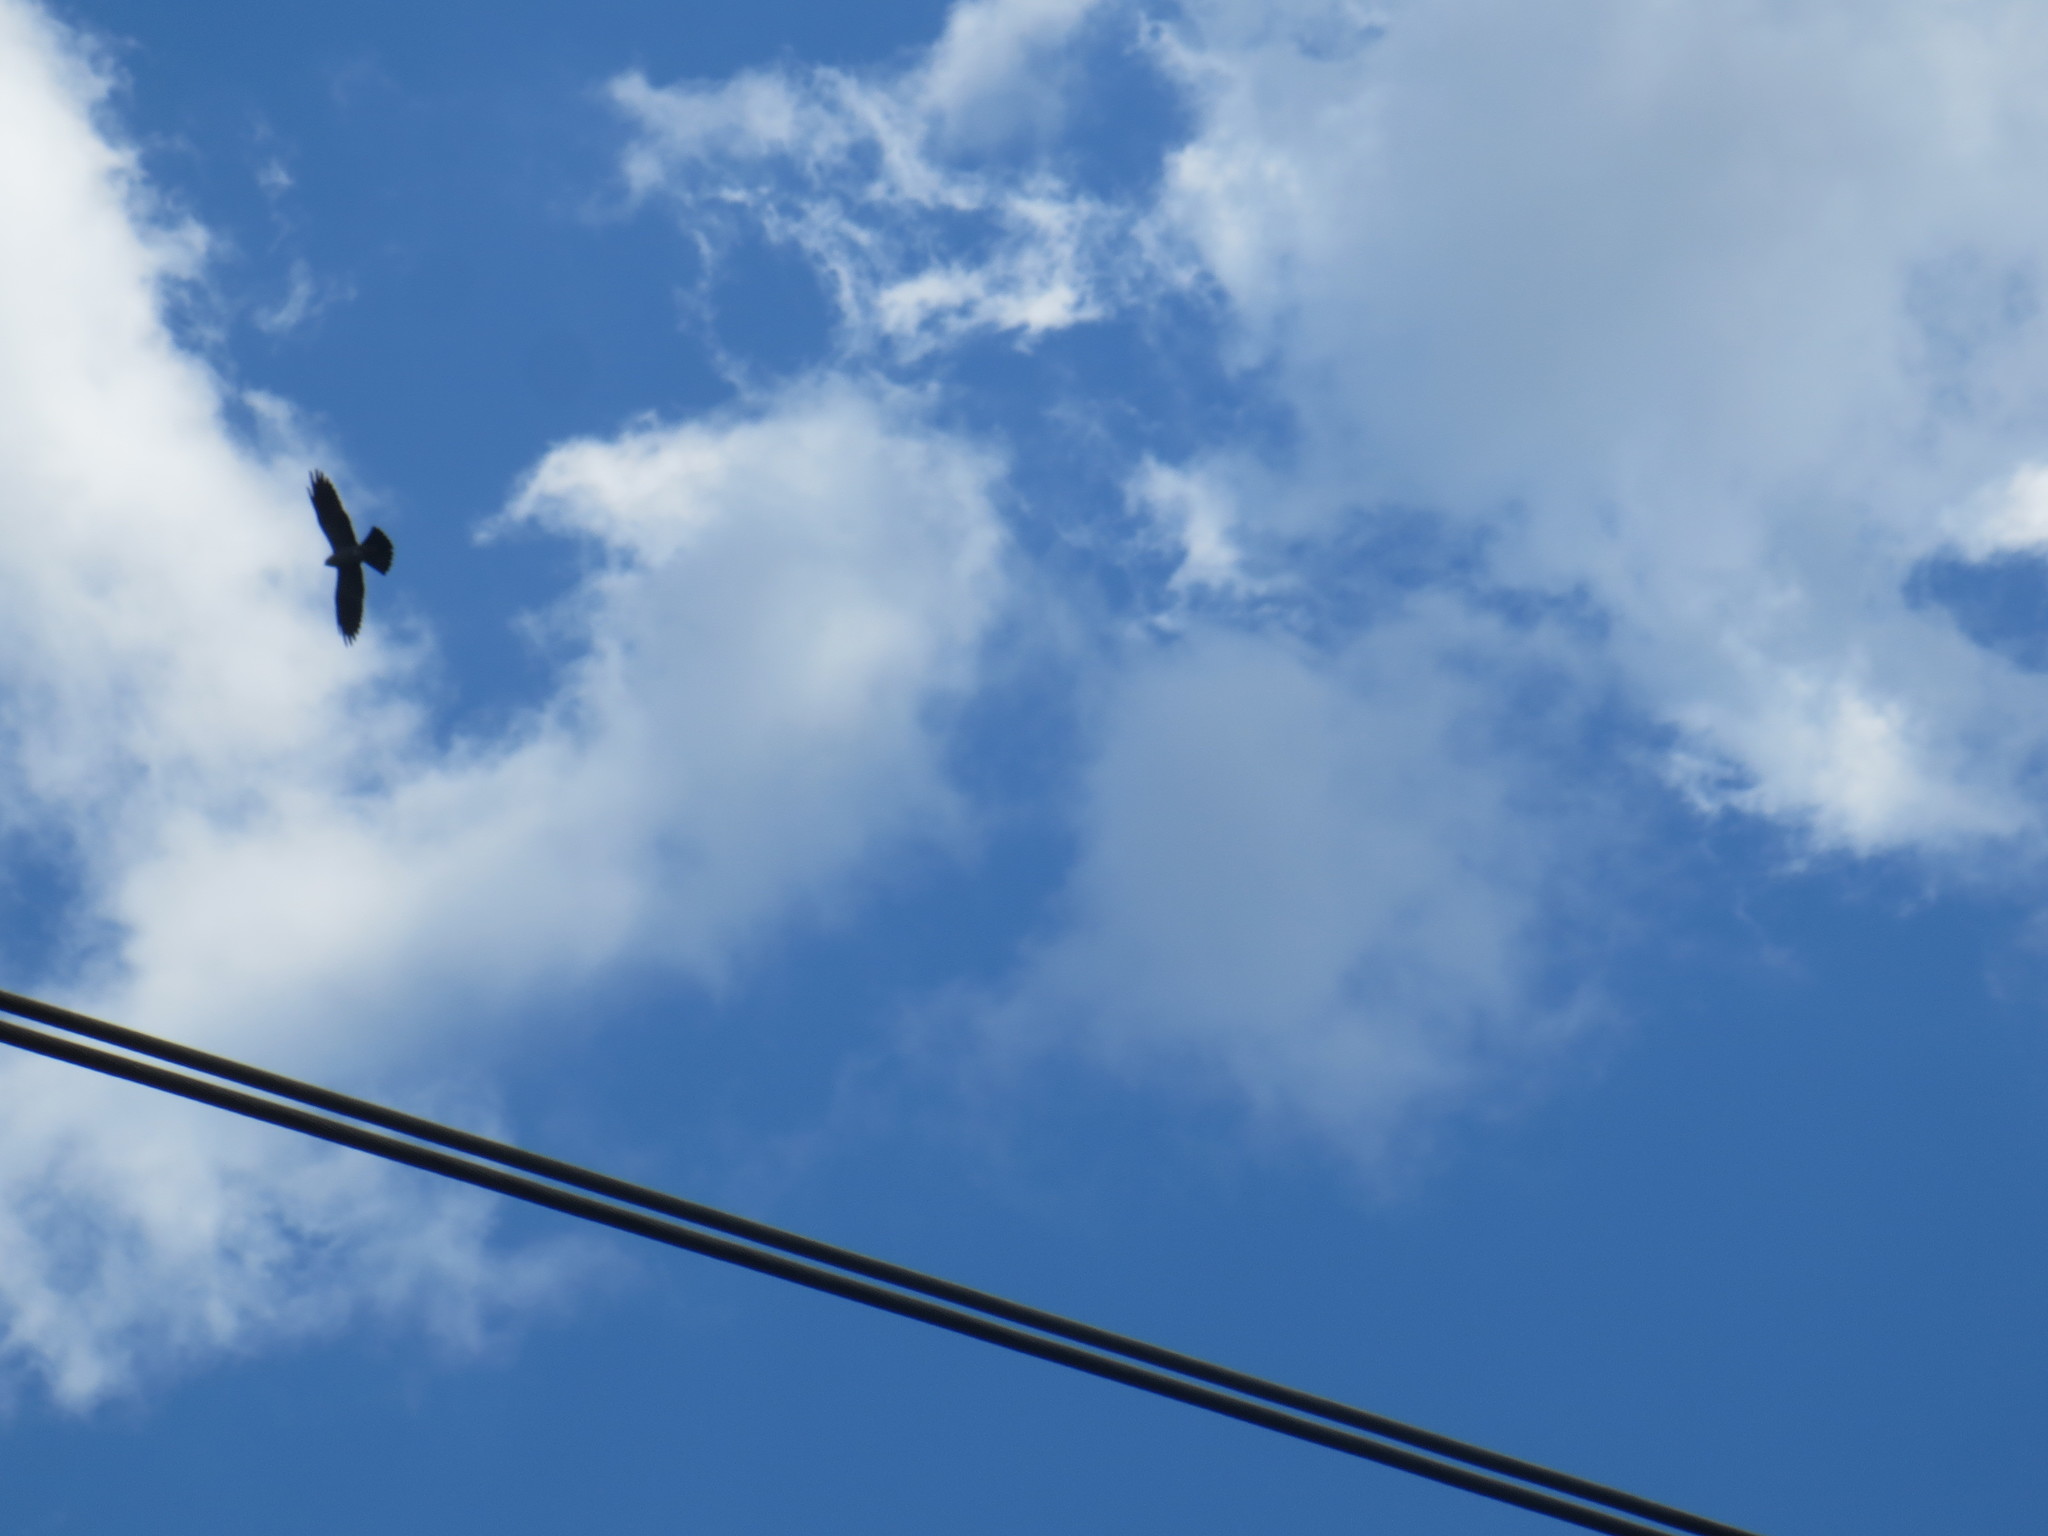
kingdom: Animalia
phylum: Chordata
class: Aves
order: Accipitriformes
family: Accipitridae
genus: Ictinia
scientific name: Ictinia mississippiensis
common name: Mississippi kite
